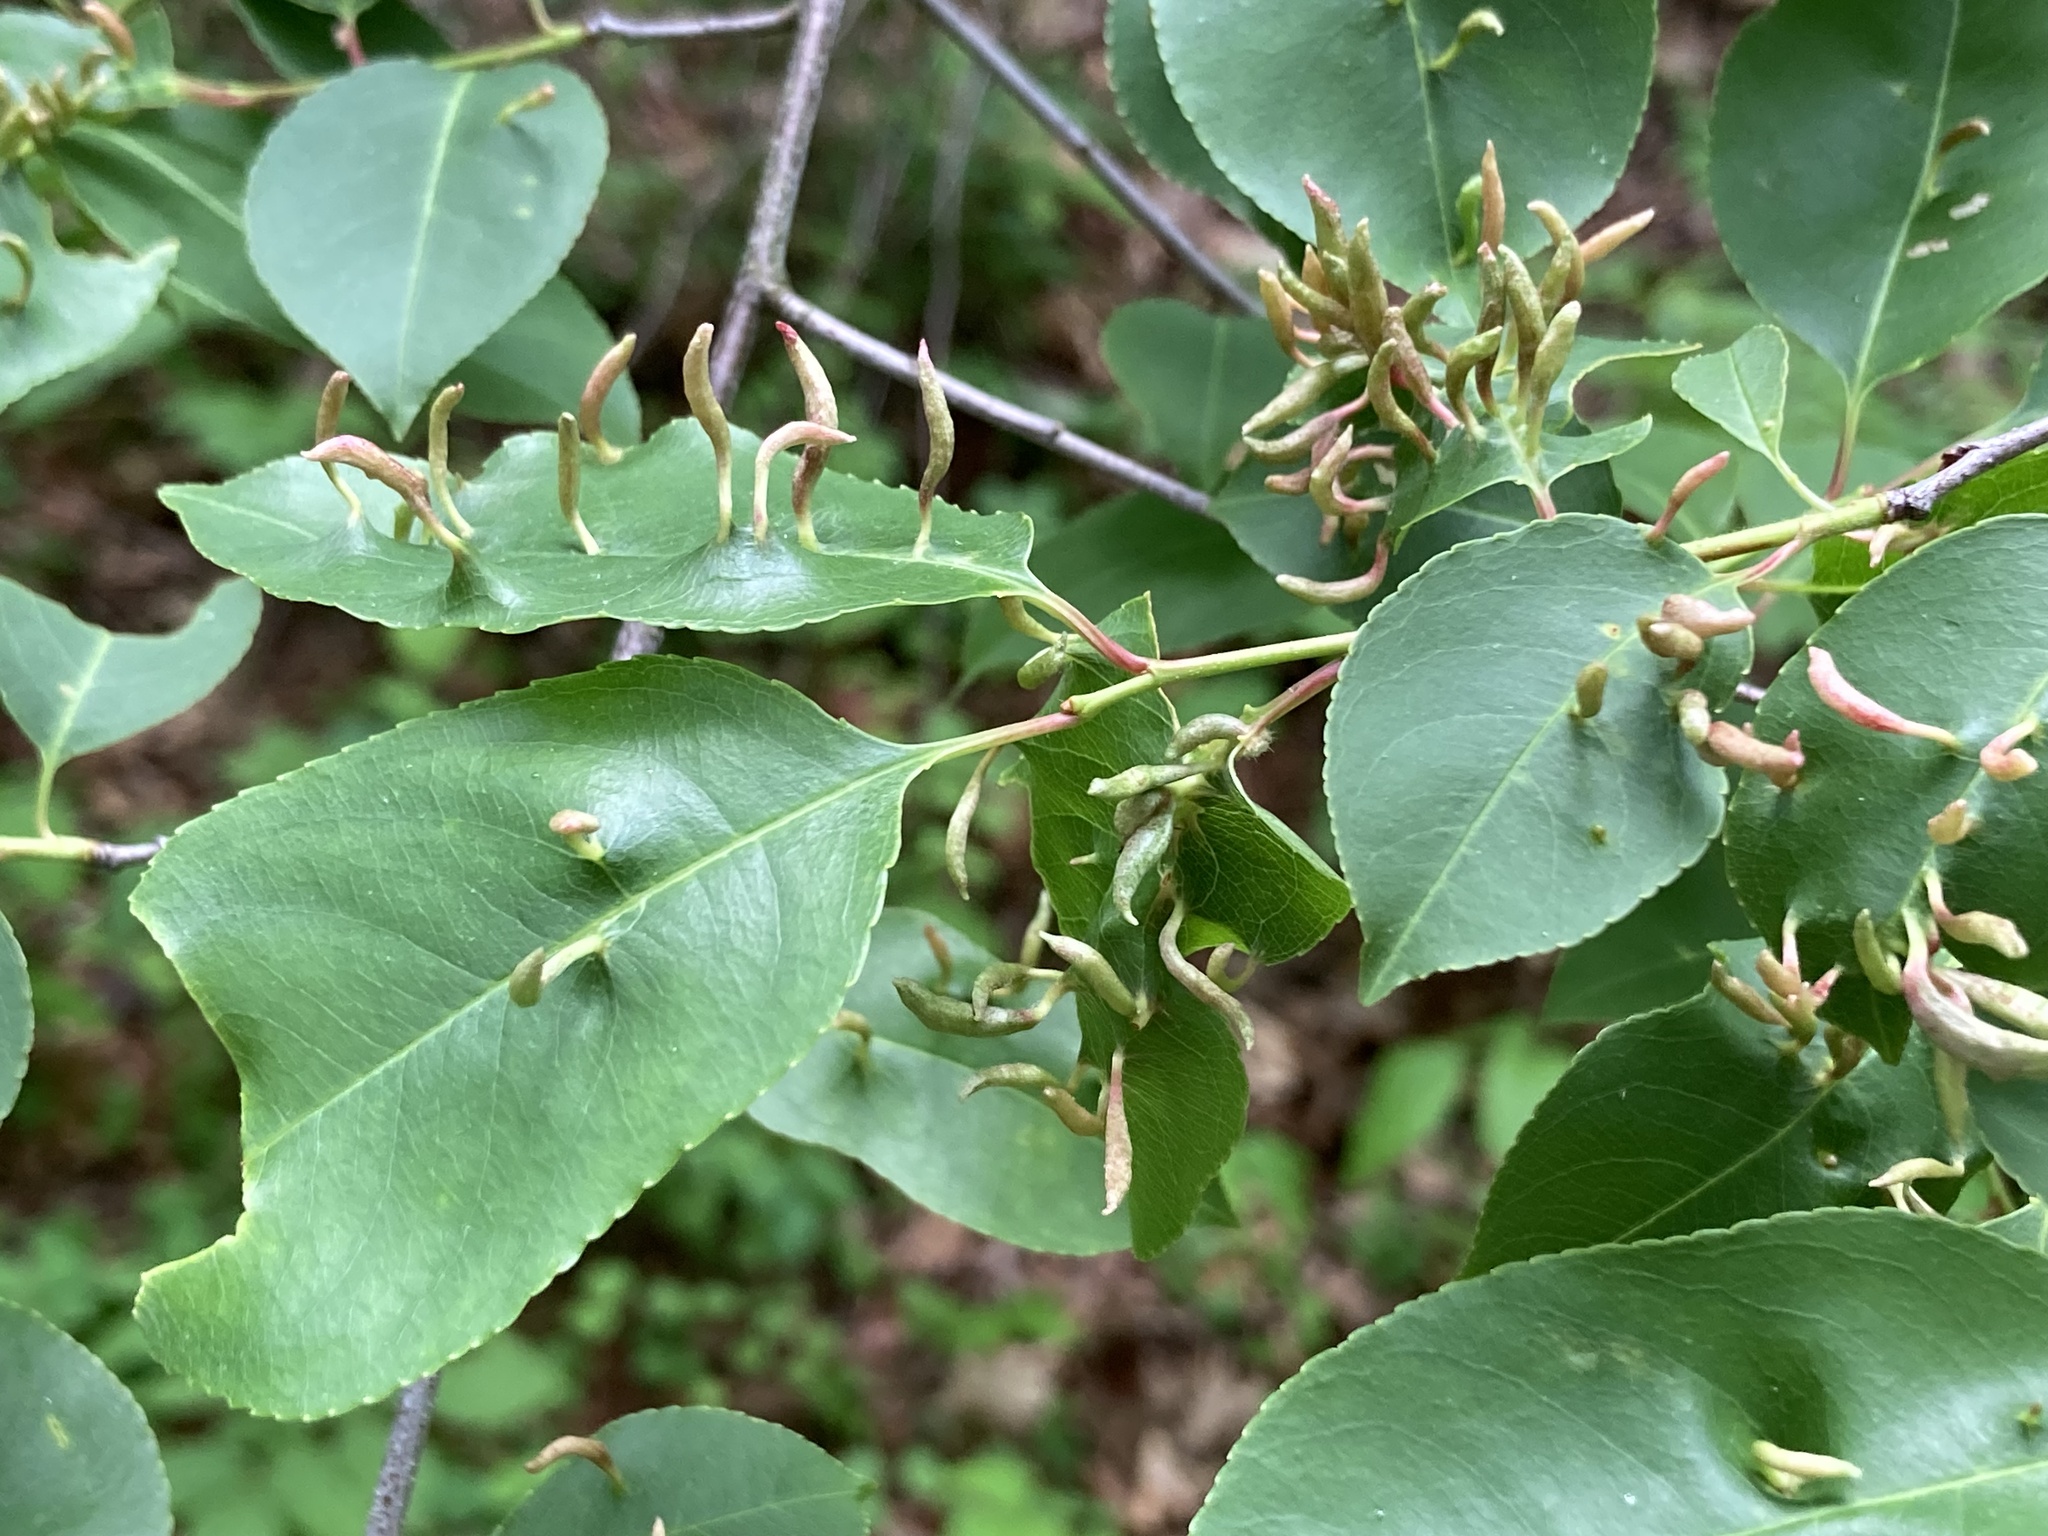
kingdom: Animalia
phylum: Arthropoda
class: Arachnida
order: Trombidiformes
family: Eriophyidae
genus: Eriophyes
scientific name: Eriophyes
